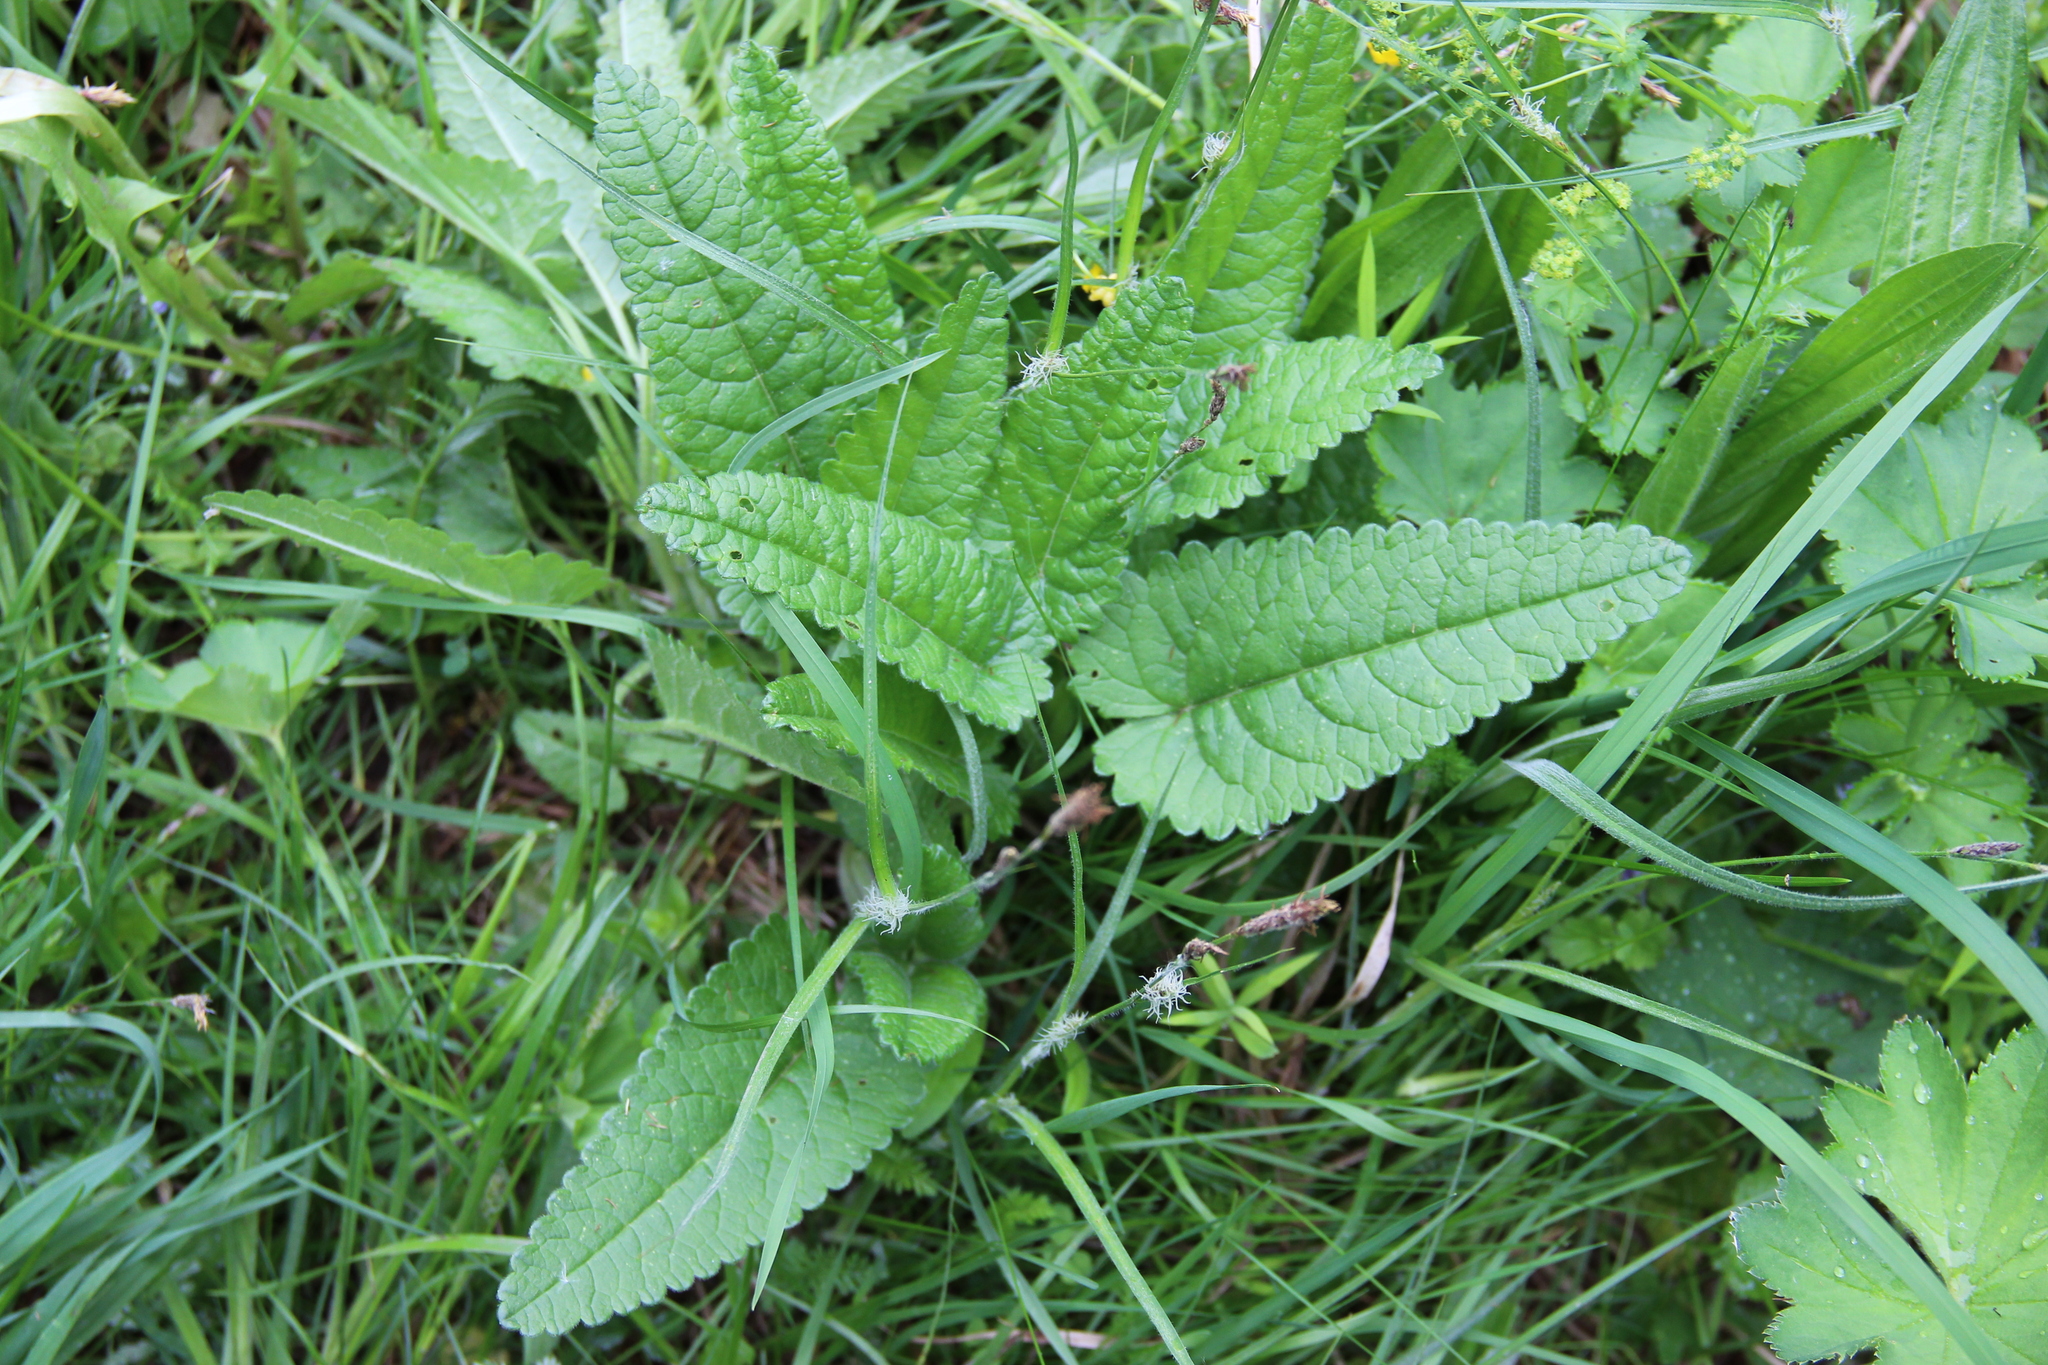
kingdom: Plantae
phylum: Tracheophyta
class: Magnoliopsida
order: Lamiales
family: Lamiaceae
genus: Betonica
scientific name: Betonica officinalis
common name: Bishop's-wort
